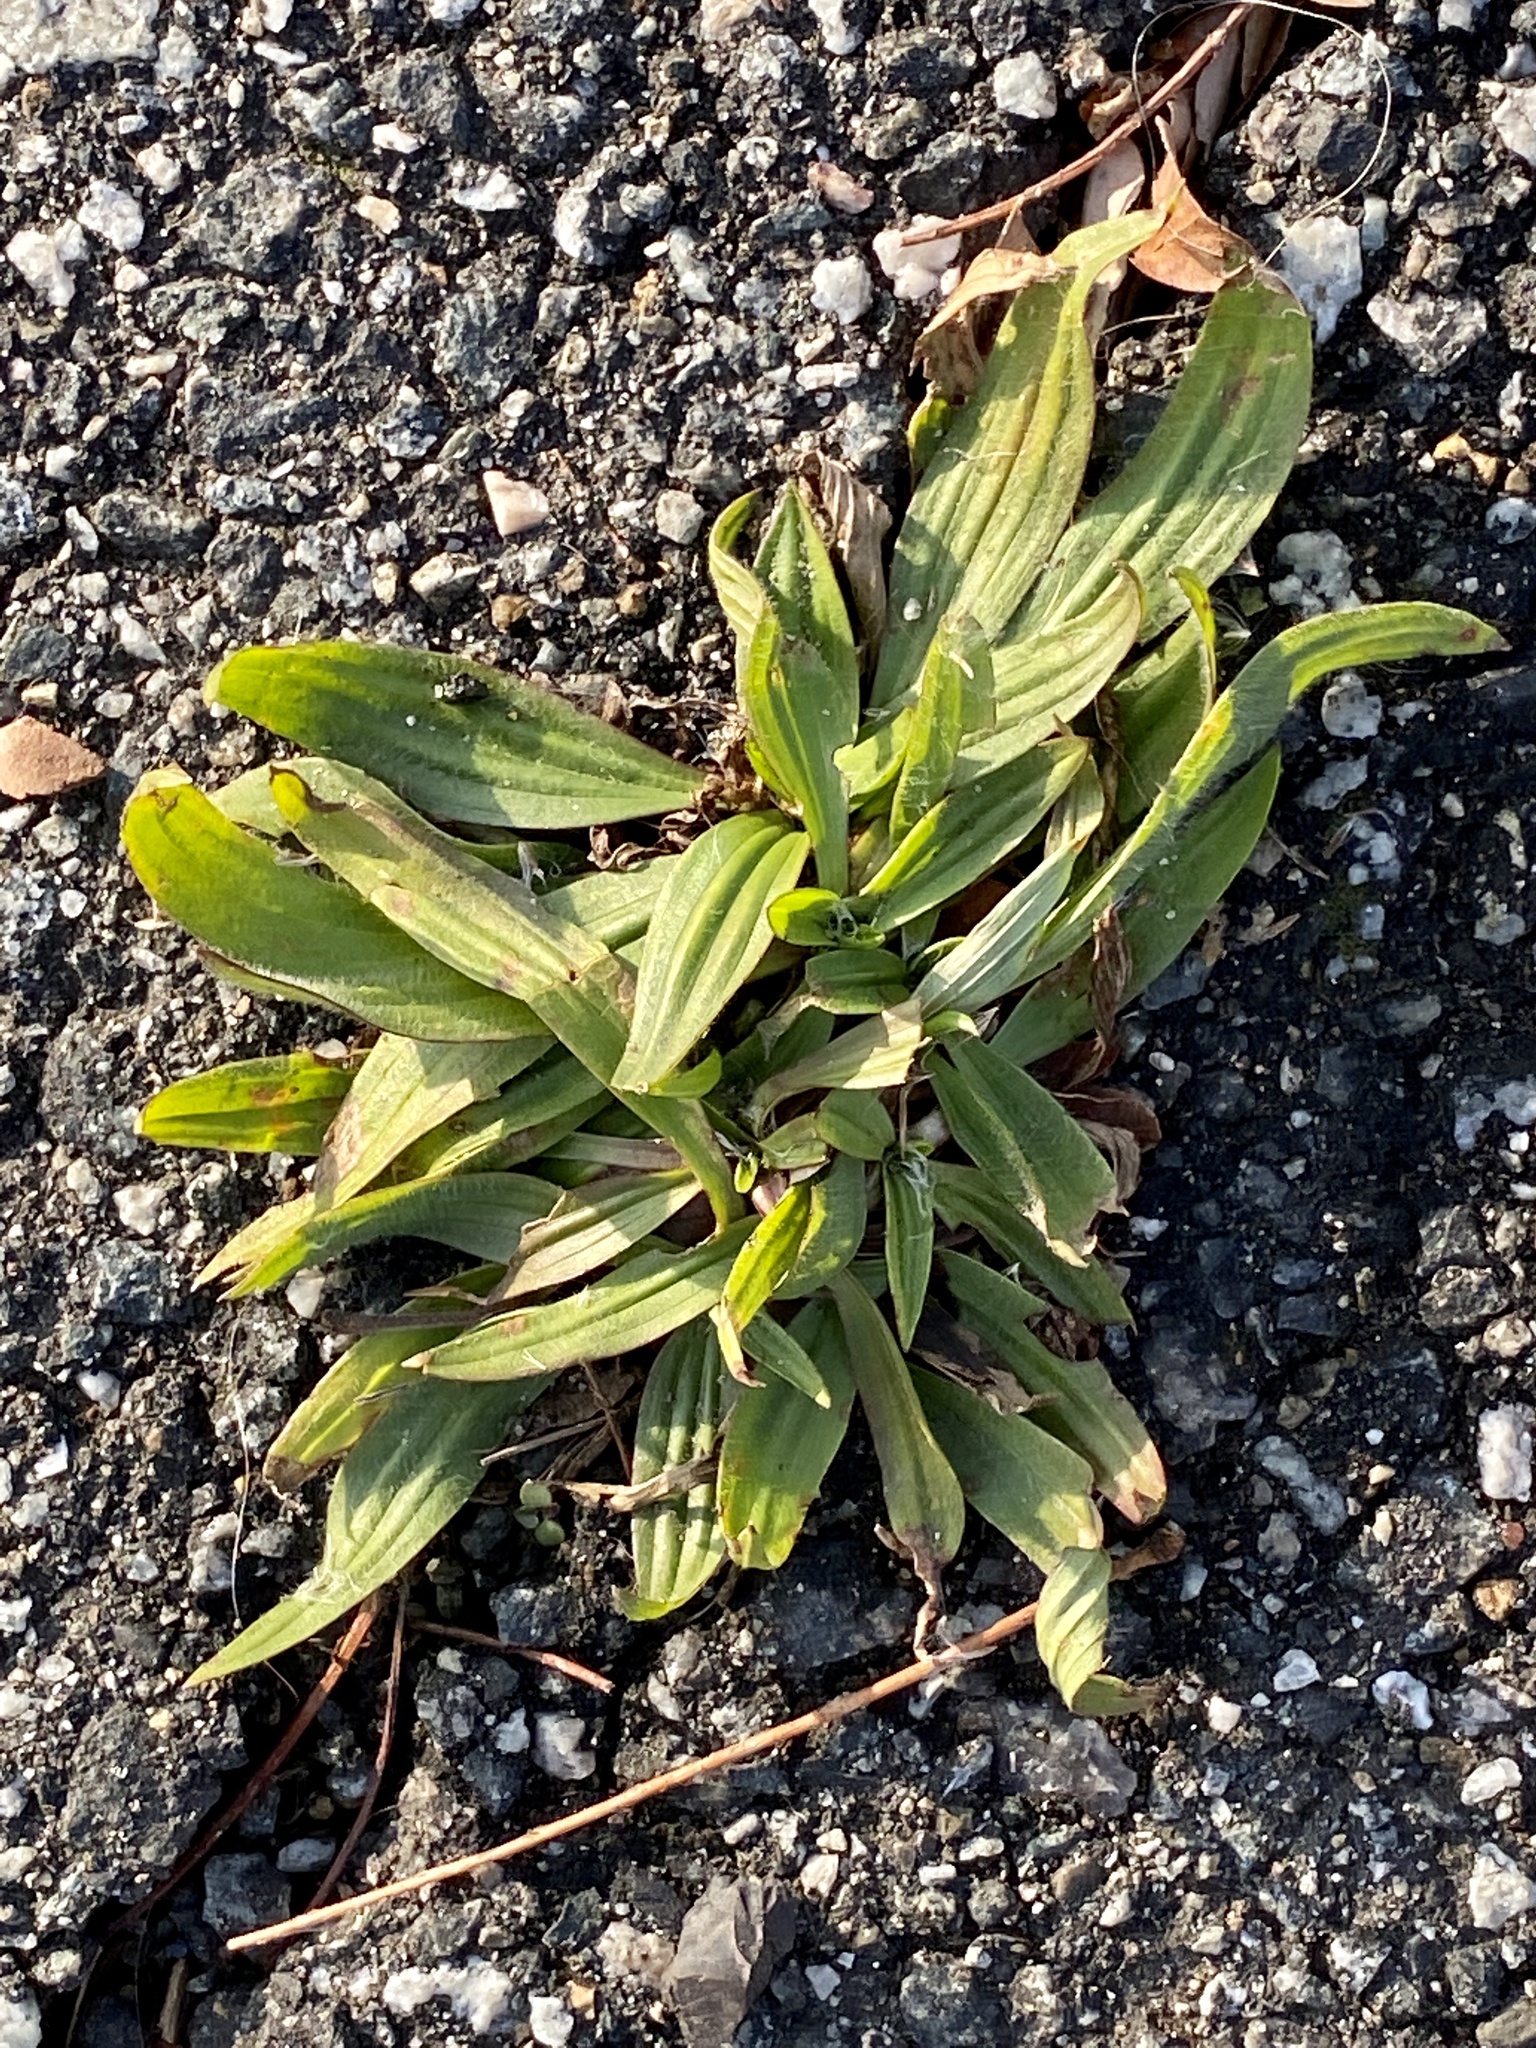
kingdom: Plantae
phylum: Tracheophyta
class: Magnoliopsida
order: Lamiales
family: Plantaginaceae
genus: Plantago
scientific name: Plantago lanceolata
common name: Ribwort plantain
